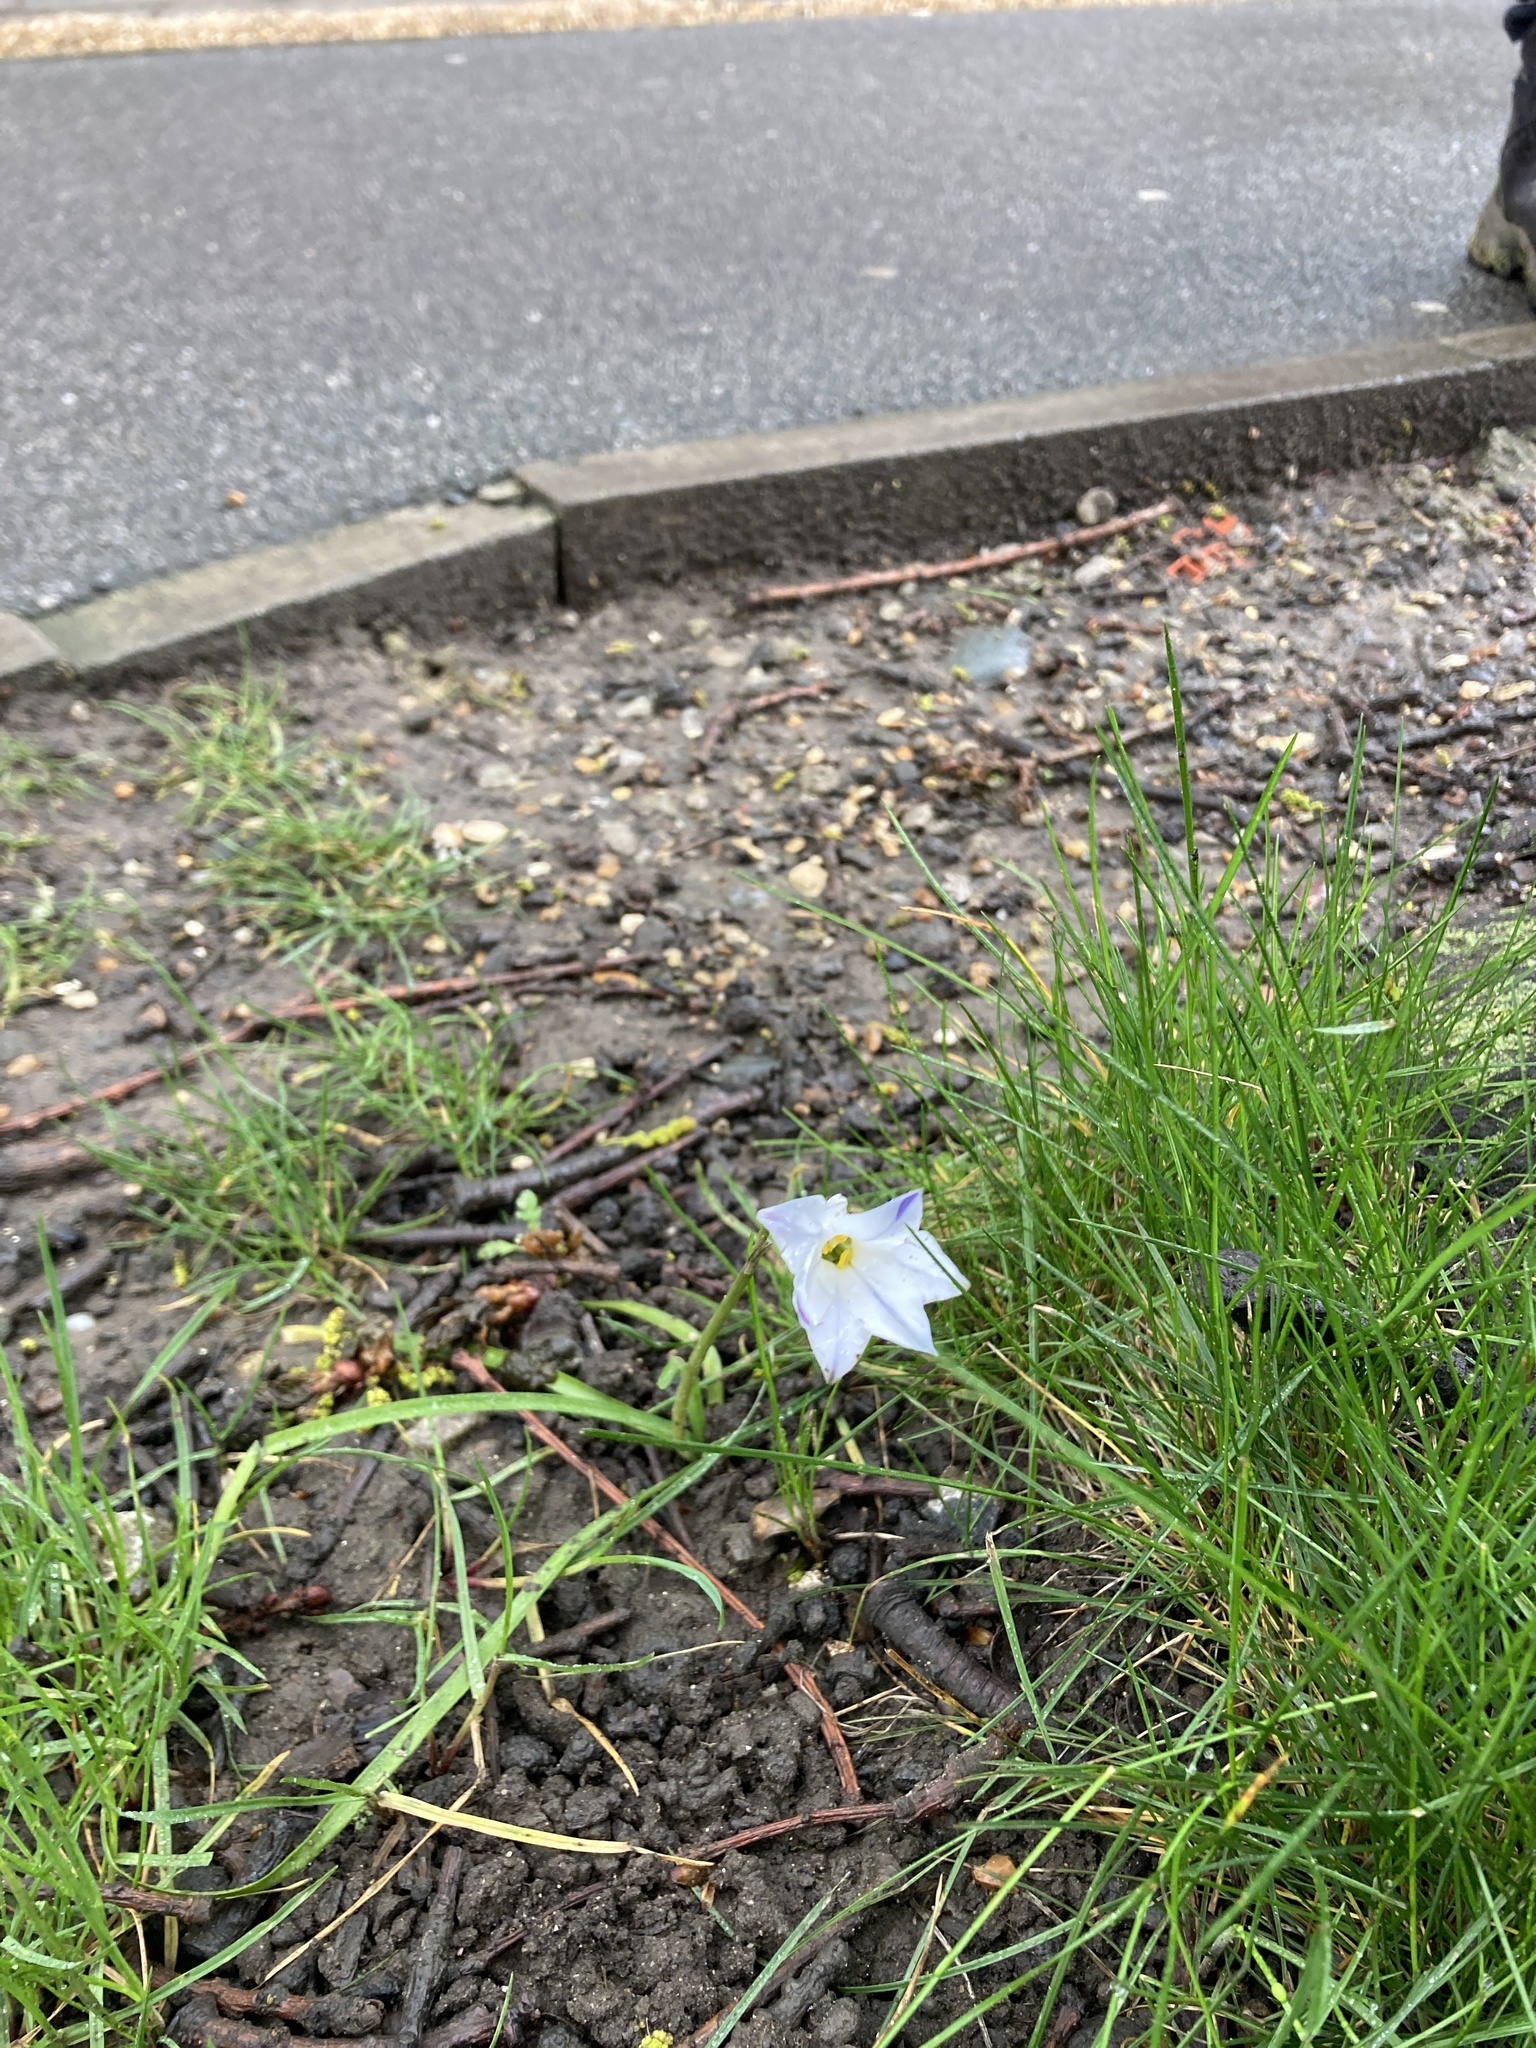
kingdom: Plantae
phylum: Tracheophyta
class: Liliopsida
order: Asparagales
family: Amaryllidaceae
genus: Ipheion
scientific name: Ipheion uniflorum
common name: Spring starflower
